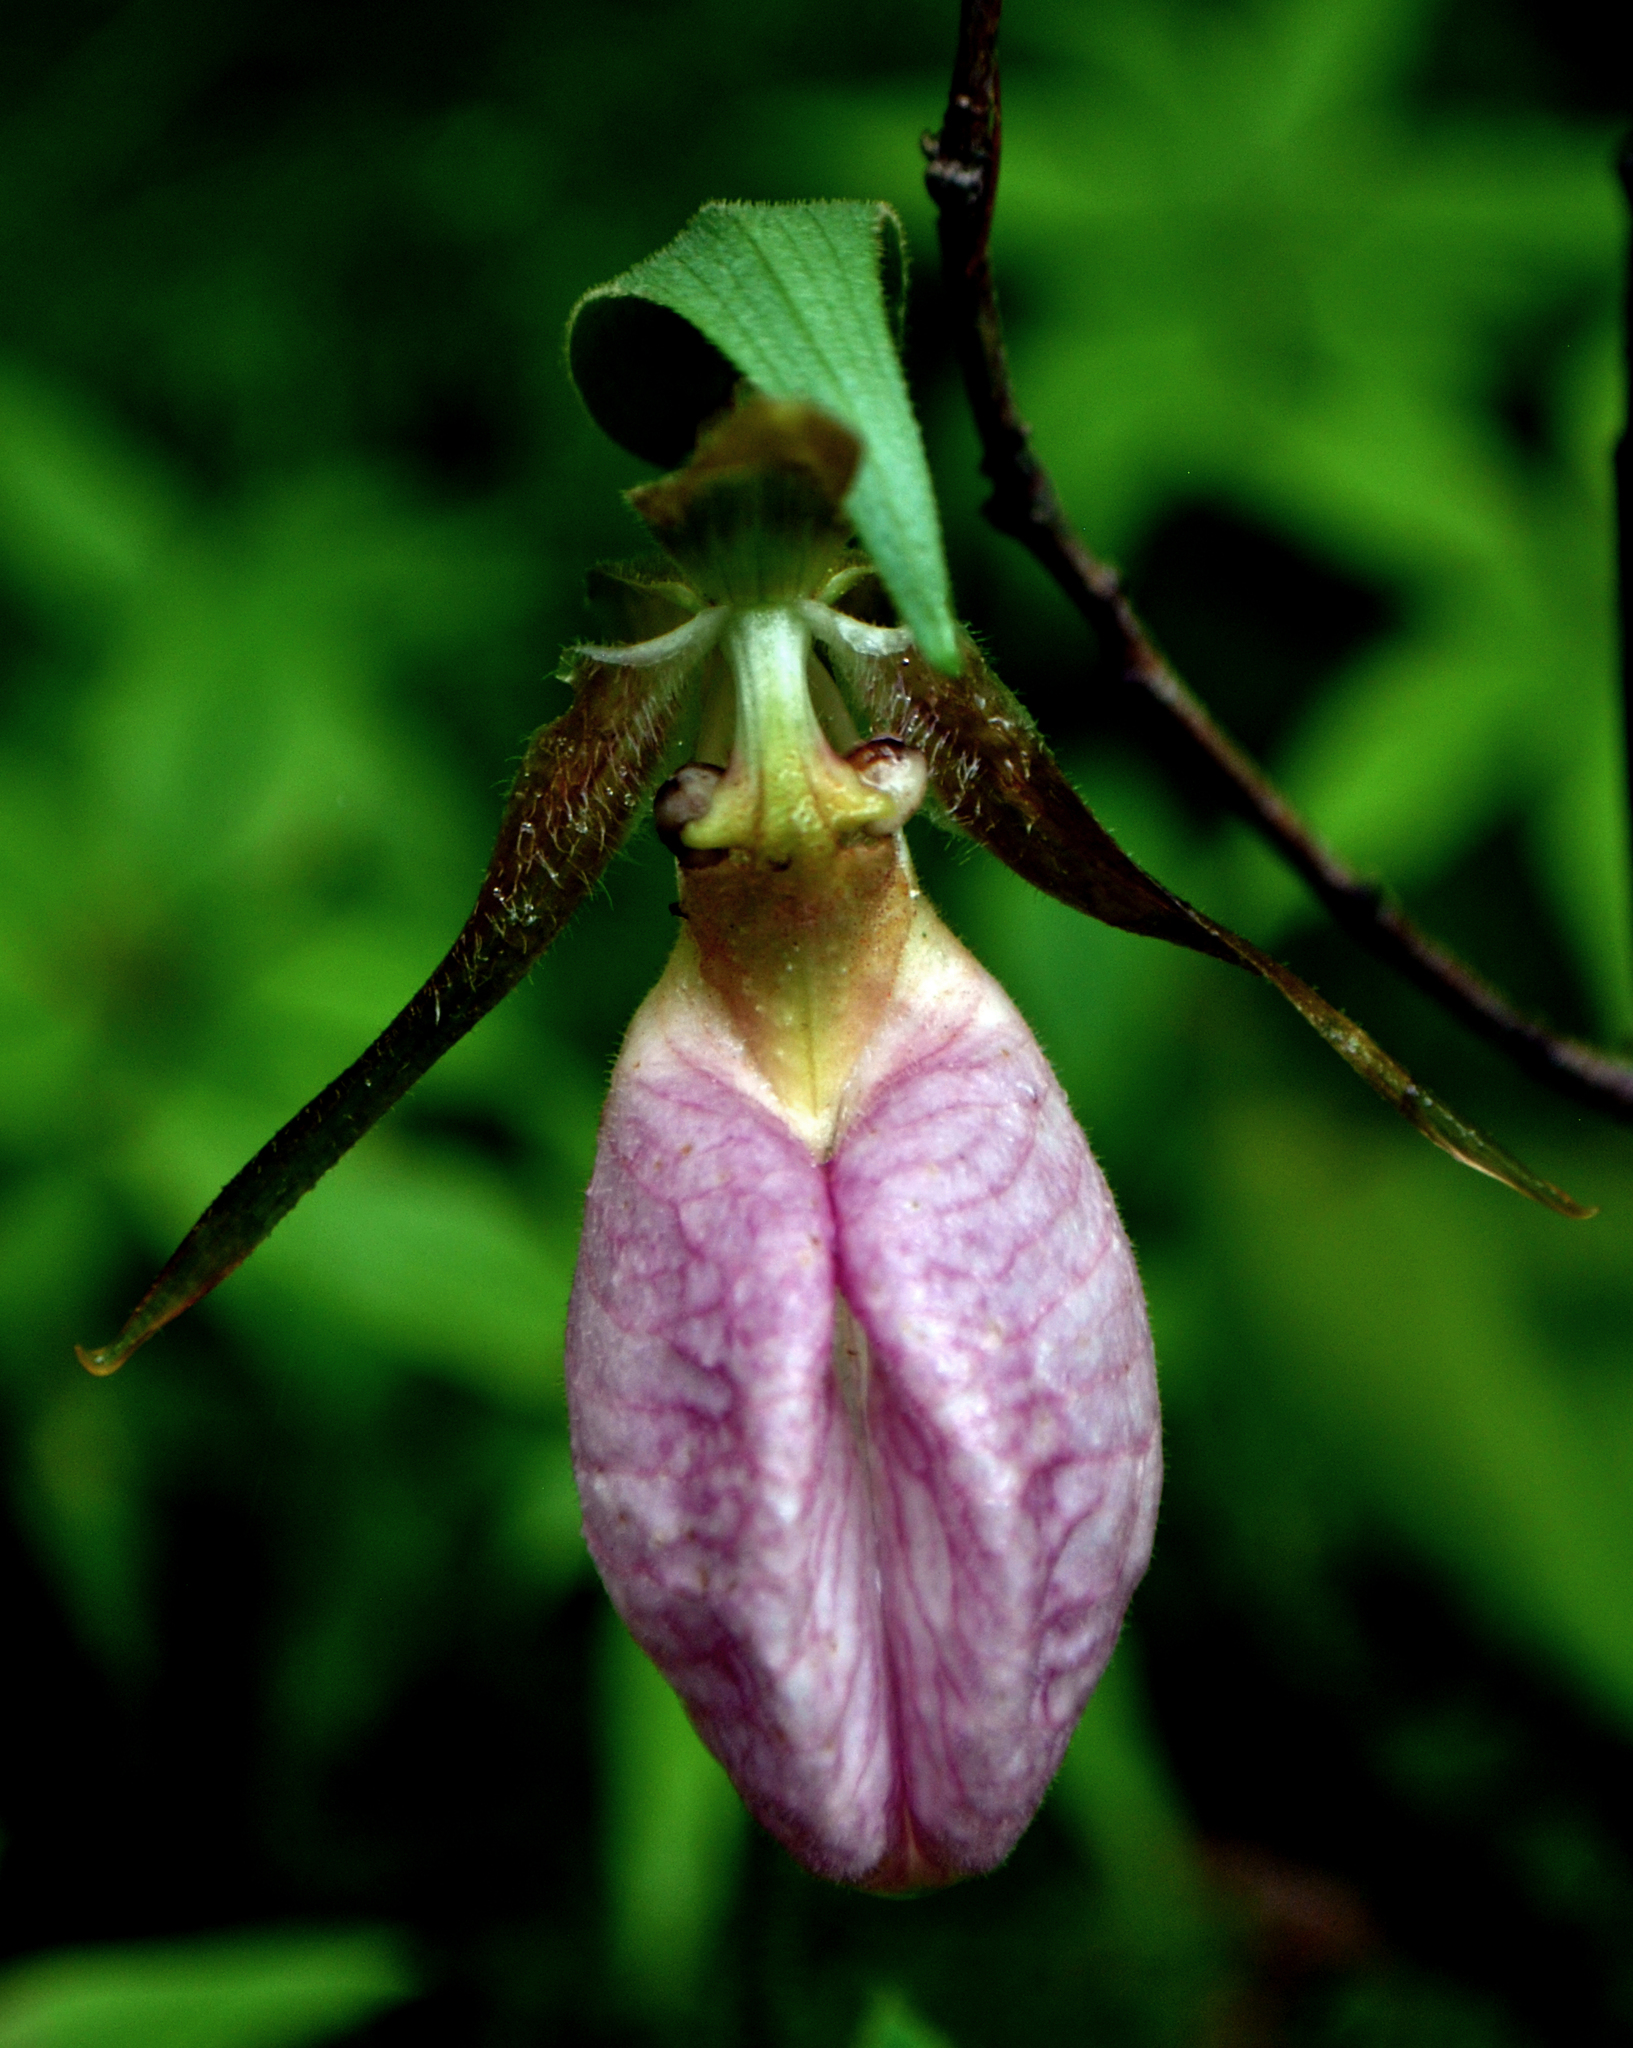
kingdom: Plantae
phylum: Tracheophyta
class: Liliopsida
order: Asparagales
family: Orchidaceae
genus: Cypripedium
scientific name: Cypripedium acaule
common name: Pink lady's-slipper
